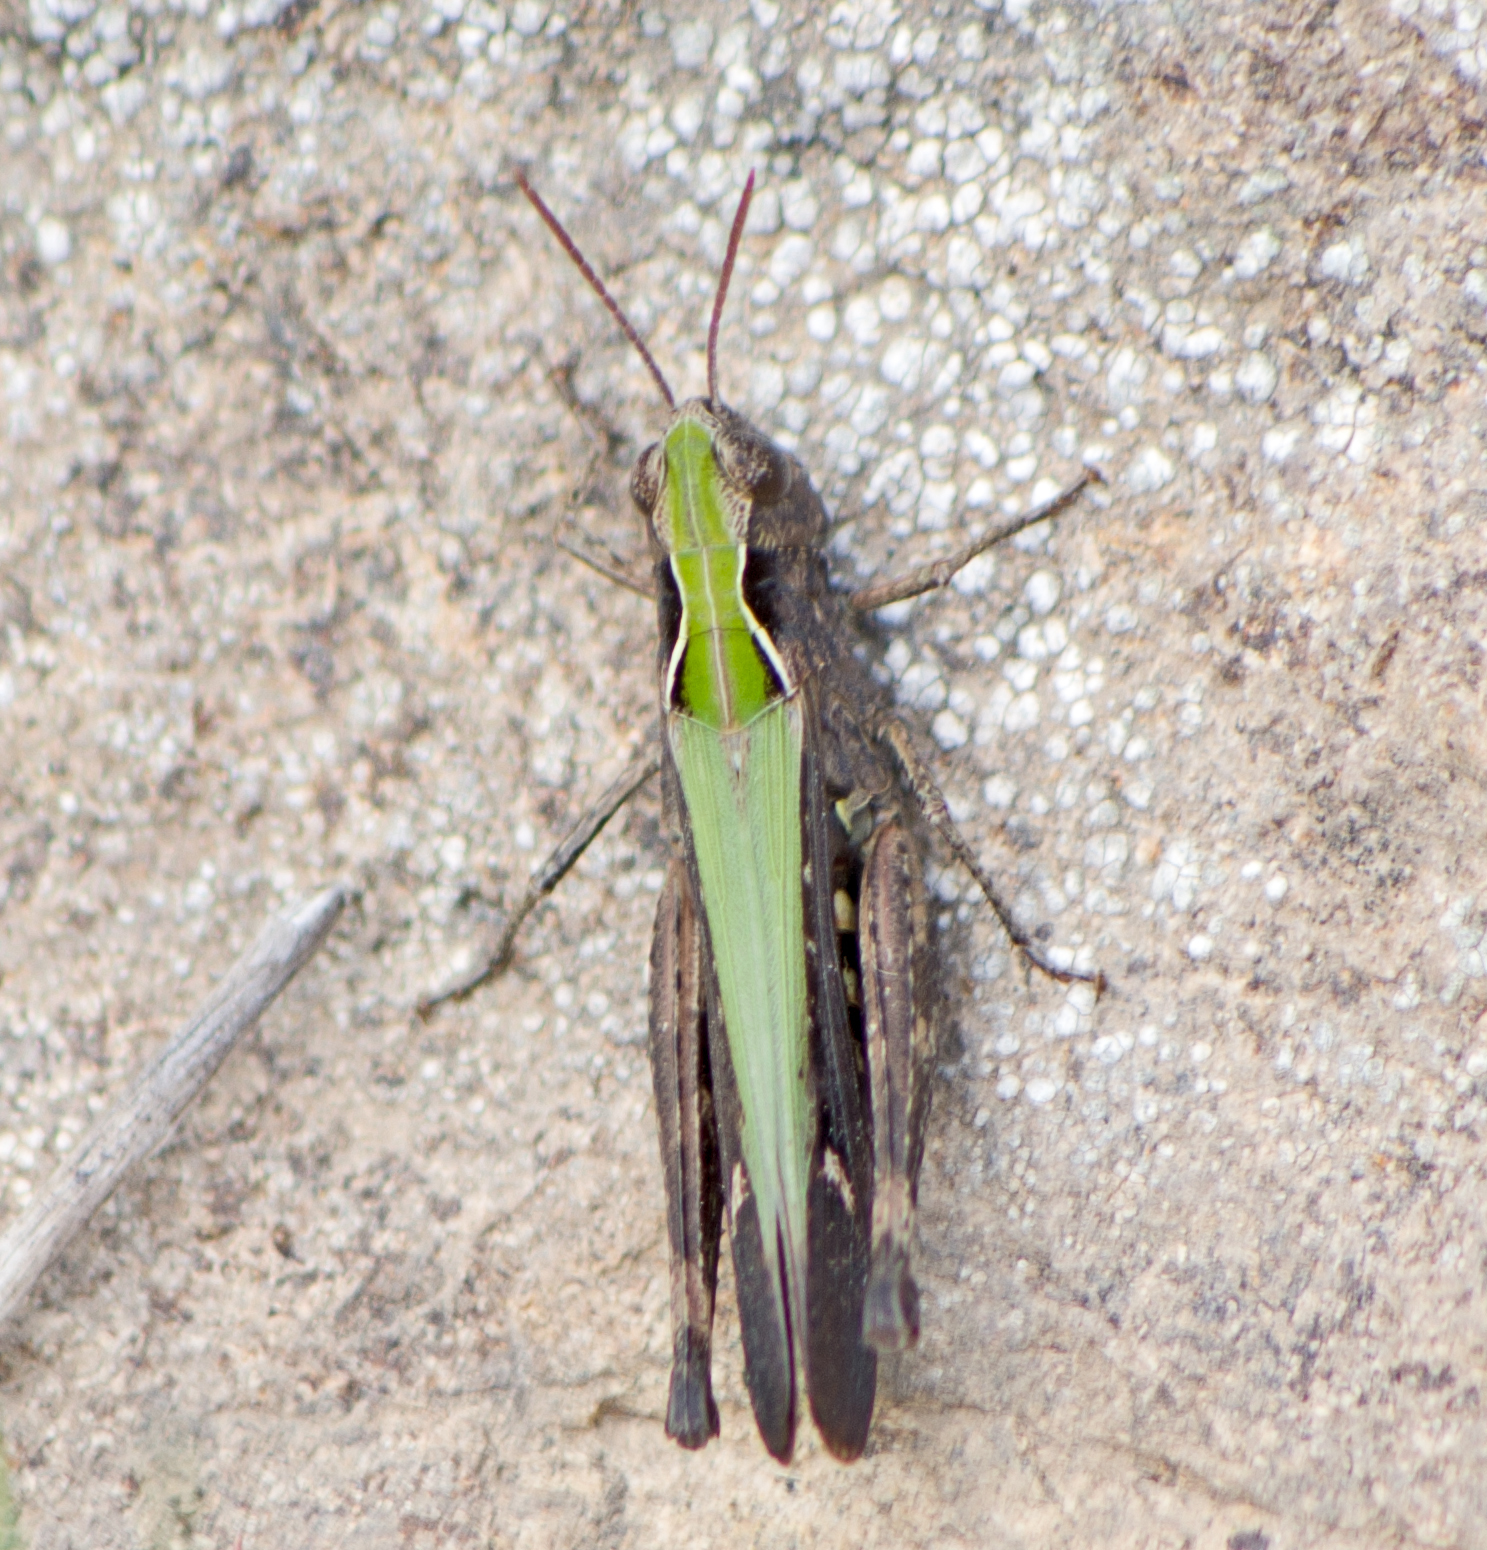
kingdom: Animalia
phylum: Arthropoda
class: Insecta
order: Orthoptera
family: Acrididae
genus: Omocestus
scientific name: Omocestus rufipes
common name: Woodland grasshopper
